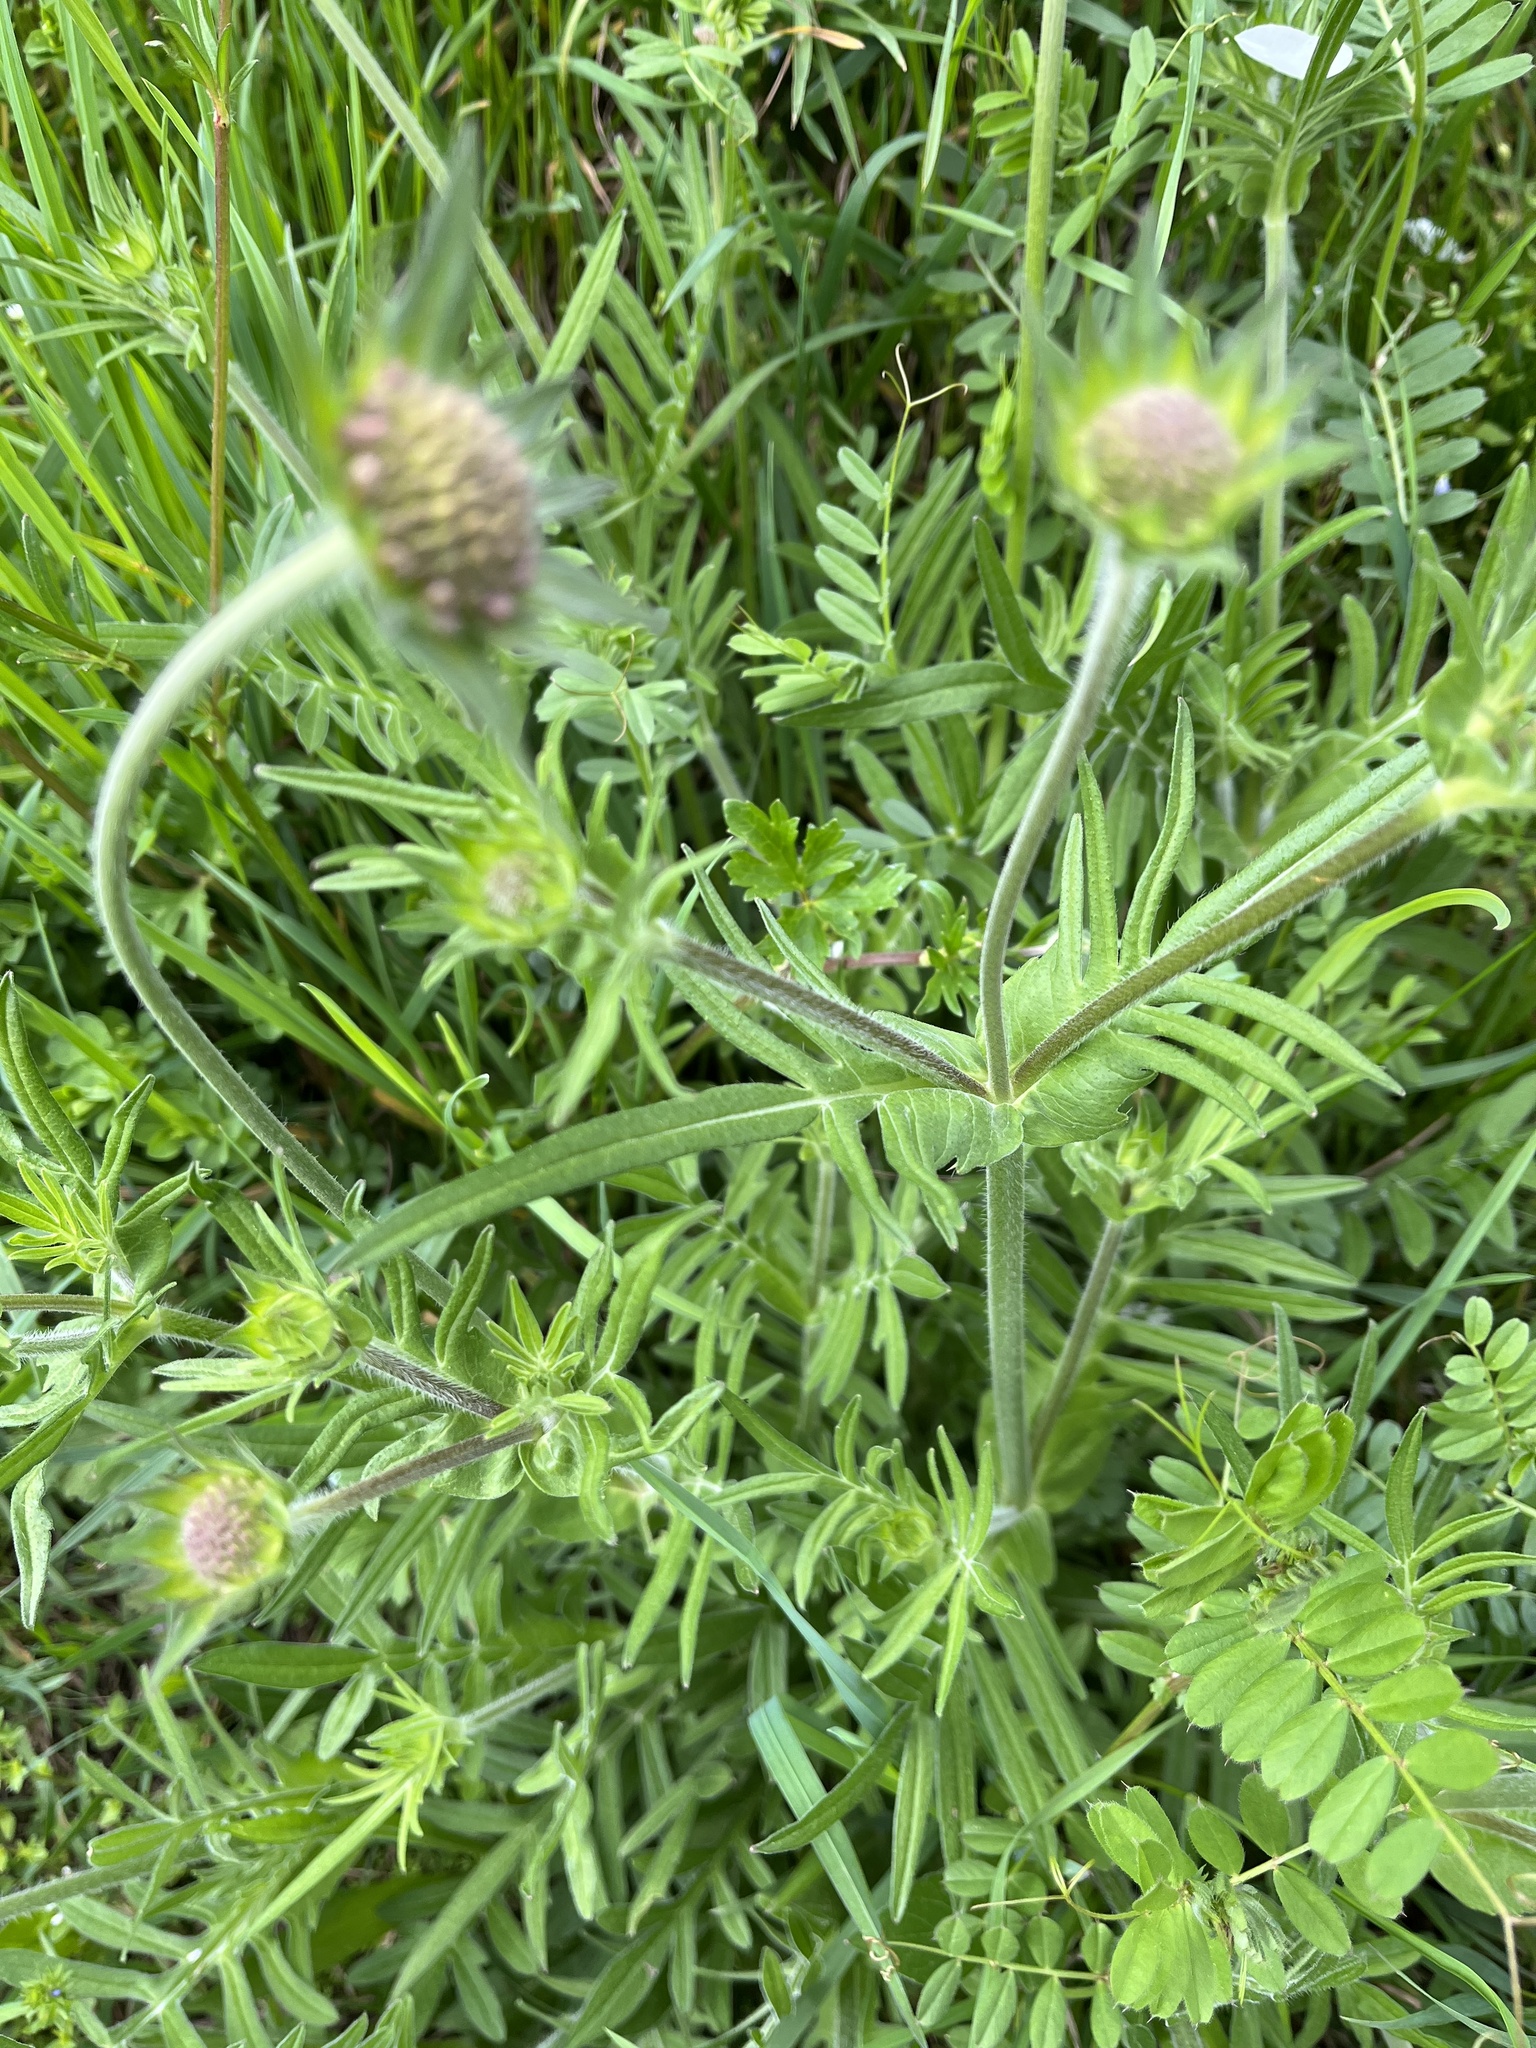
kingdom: Plantae
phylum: Tracheophyta
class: Magnoliopsida
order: Dipsacales
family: Caprifoliaceae
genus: Knautia
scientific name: Knautia arvensis
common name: Field scabiosa
